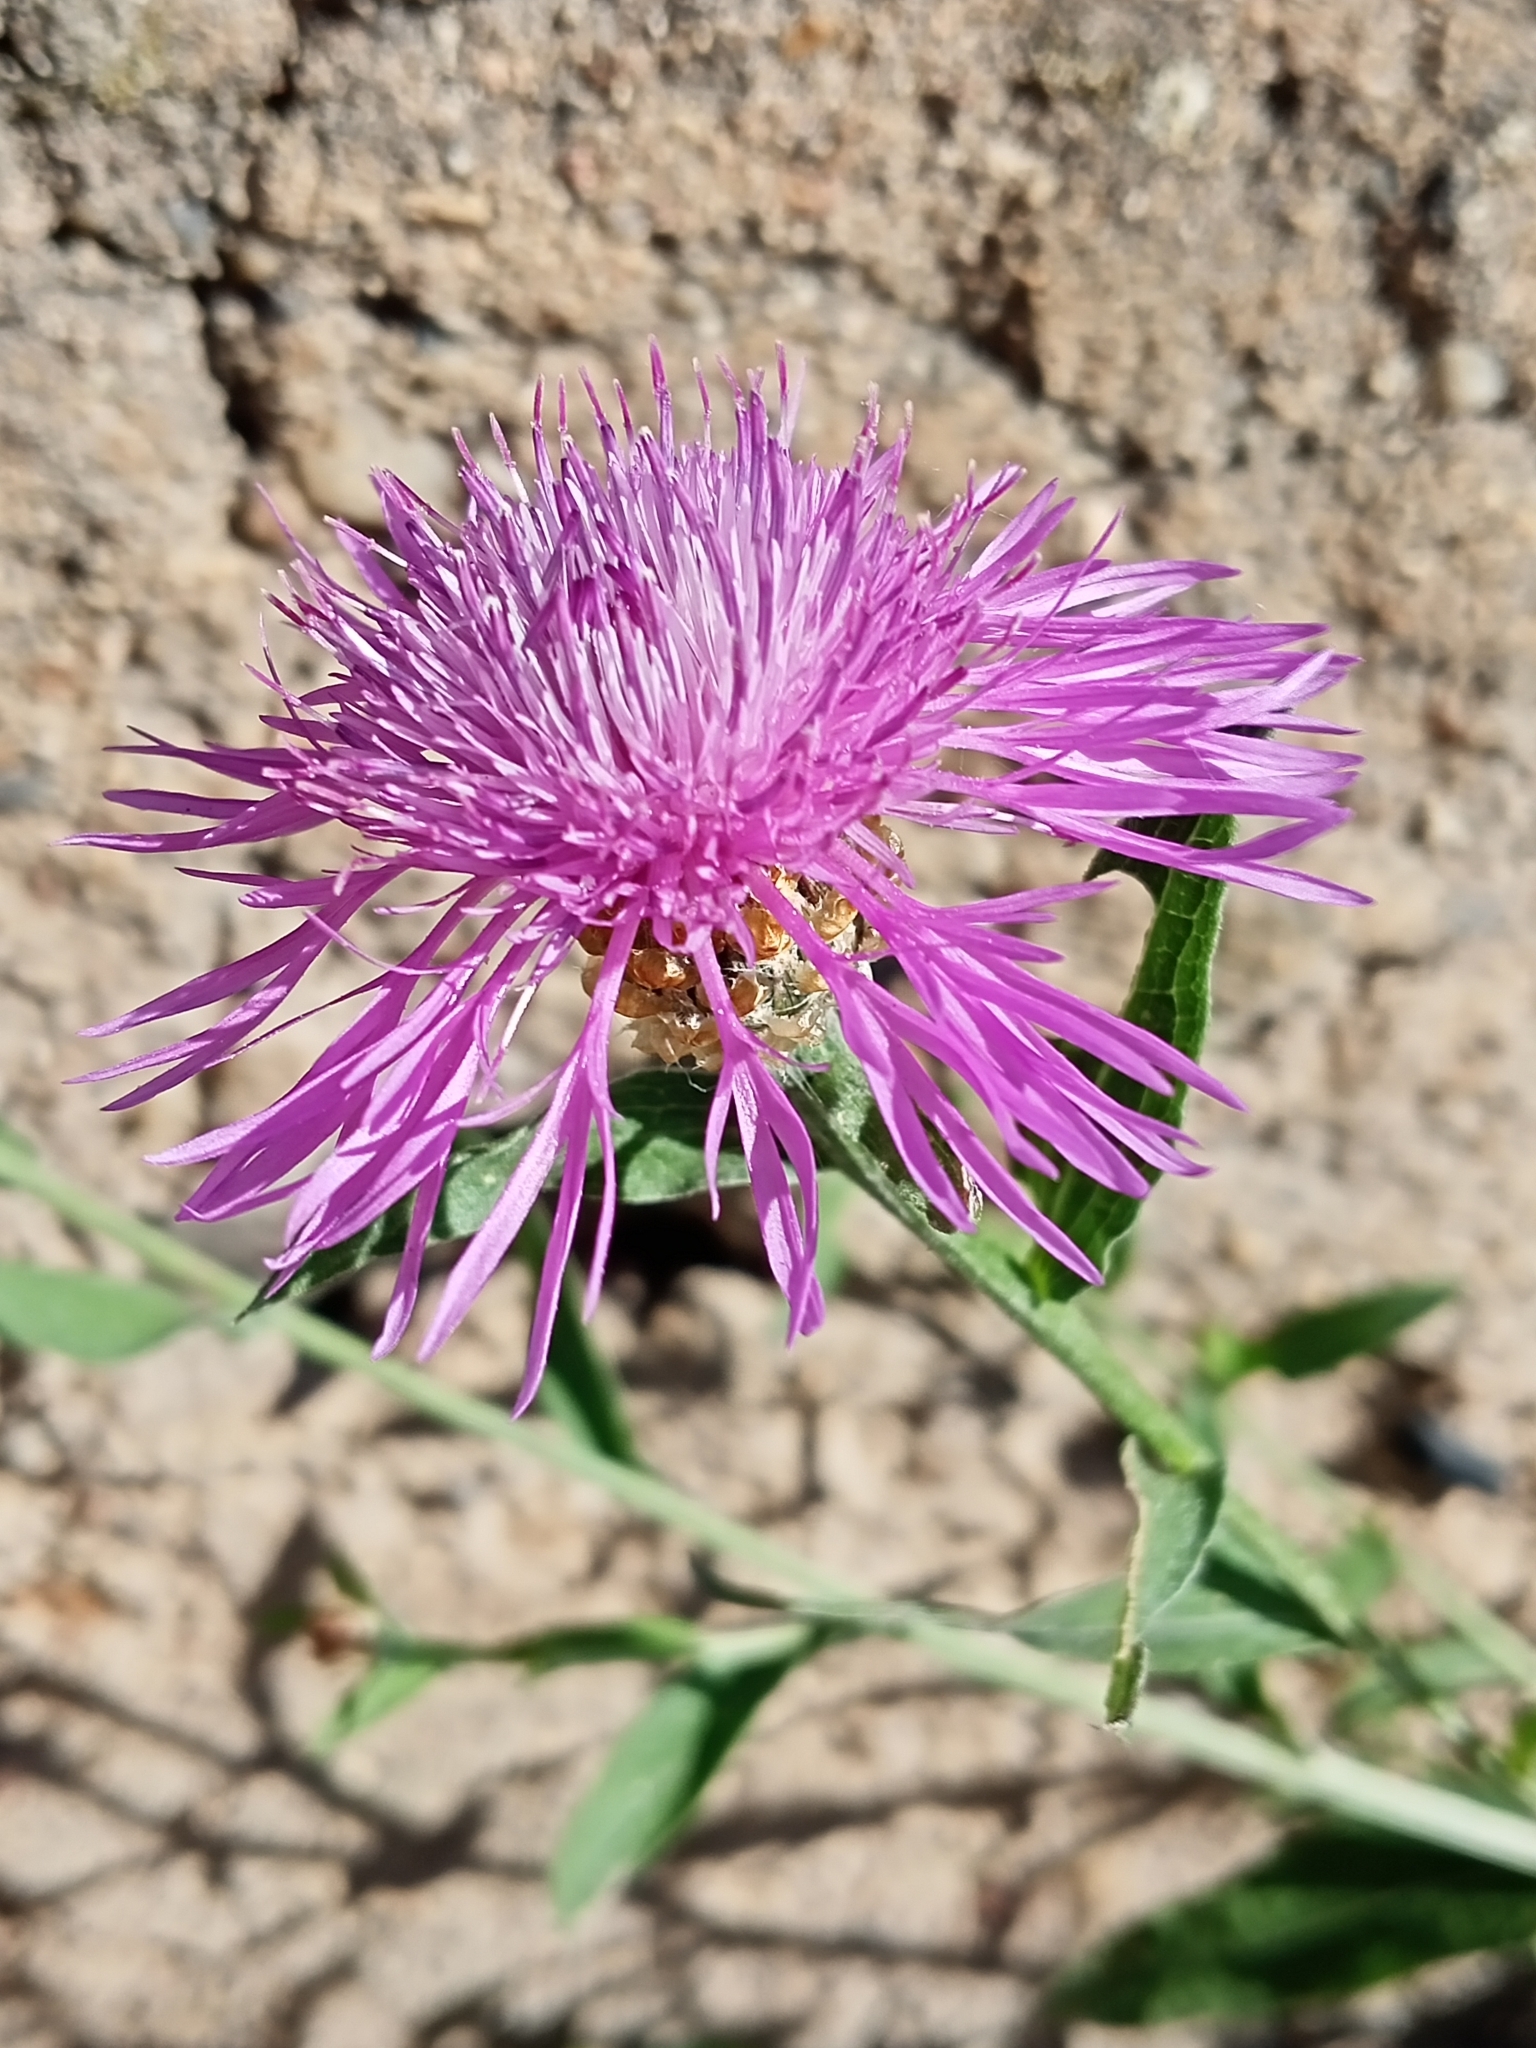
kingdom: Plantae
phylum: Tracheophyta
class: Magnoliopsida
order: Asterales
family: Asteraceae
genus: Centaurea
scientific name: Centaurea jacea
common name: Brown knapweed
